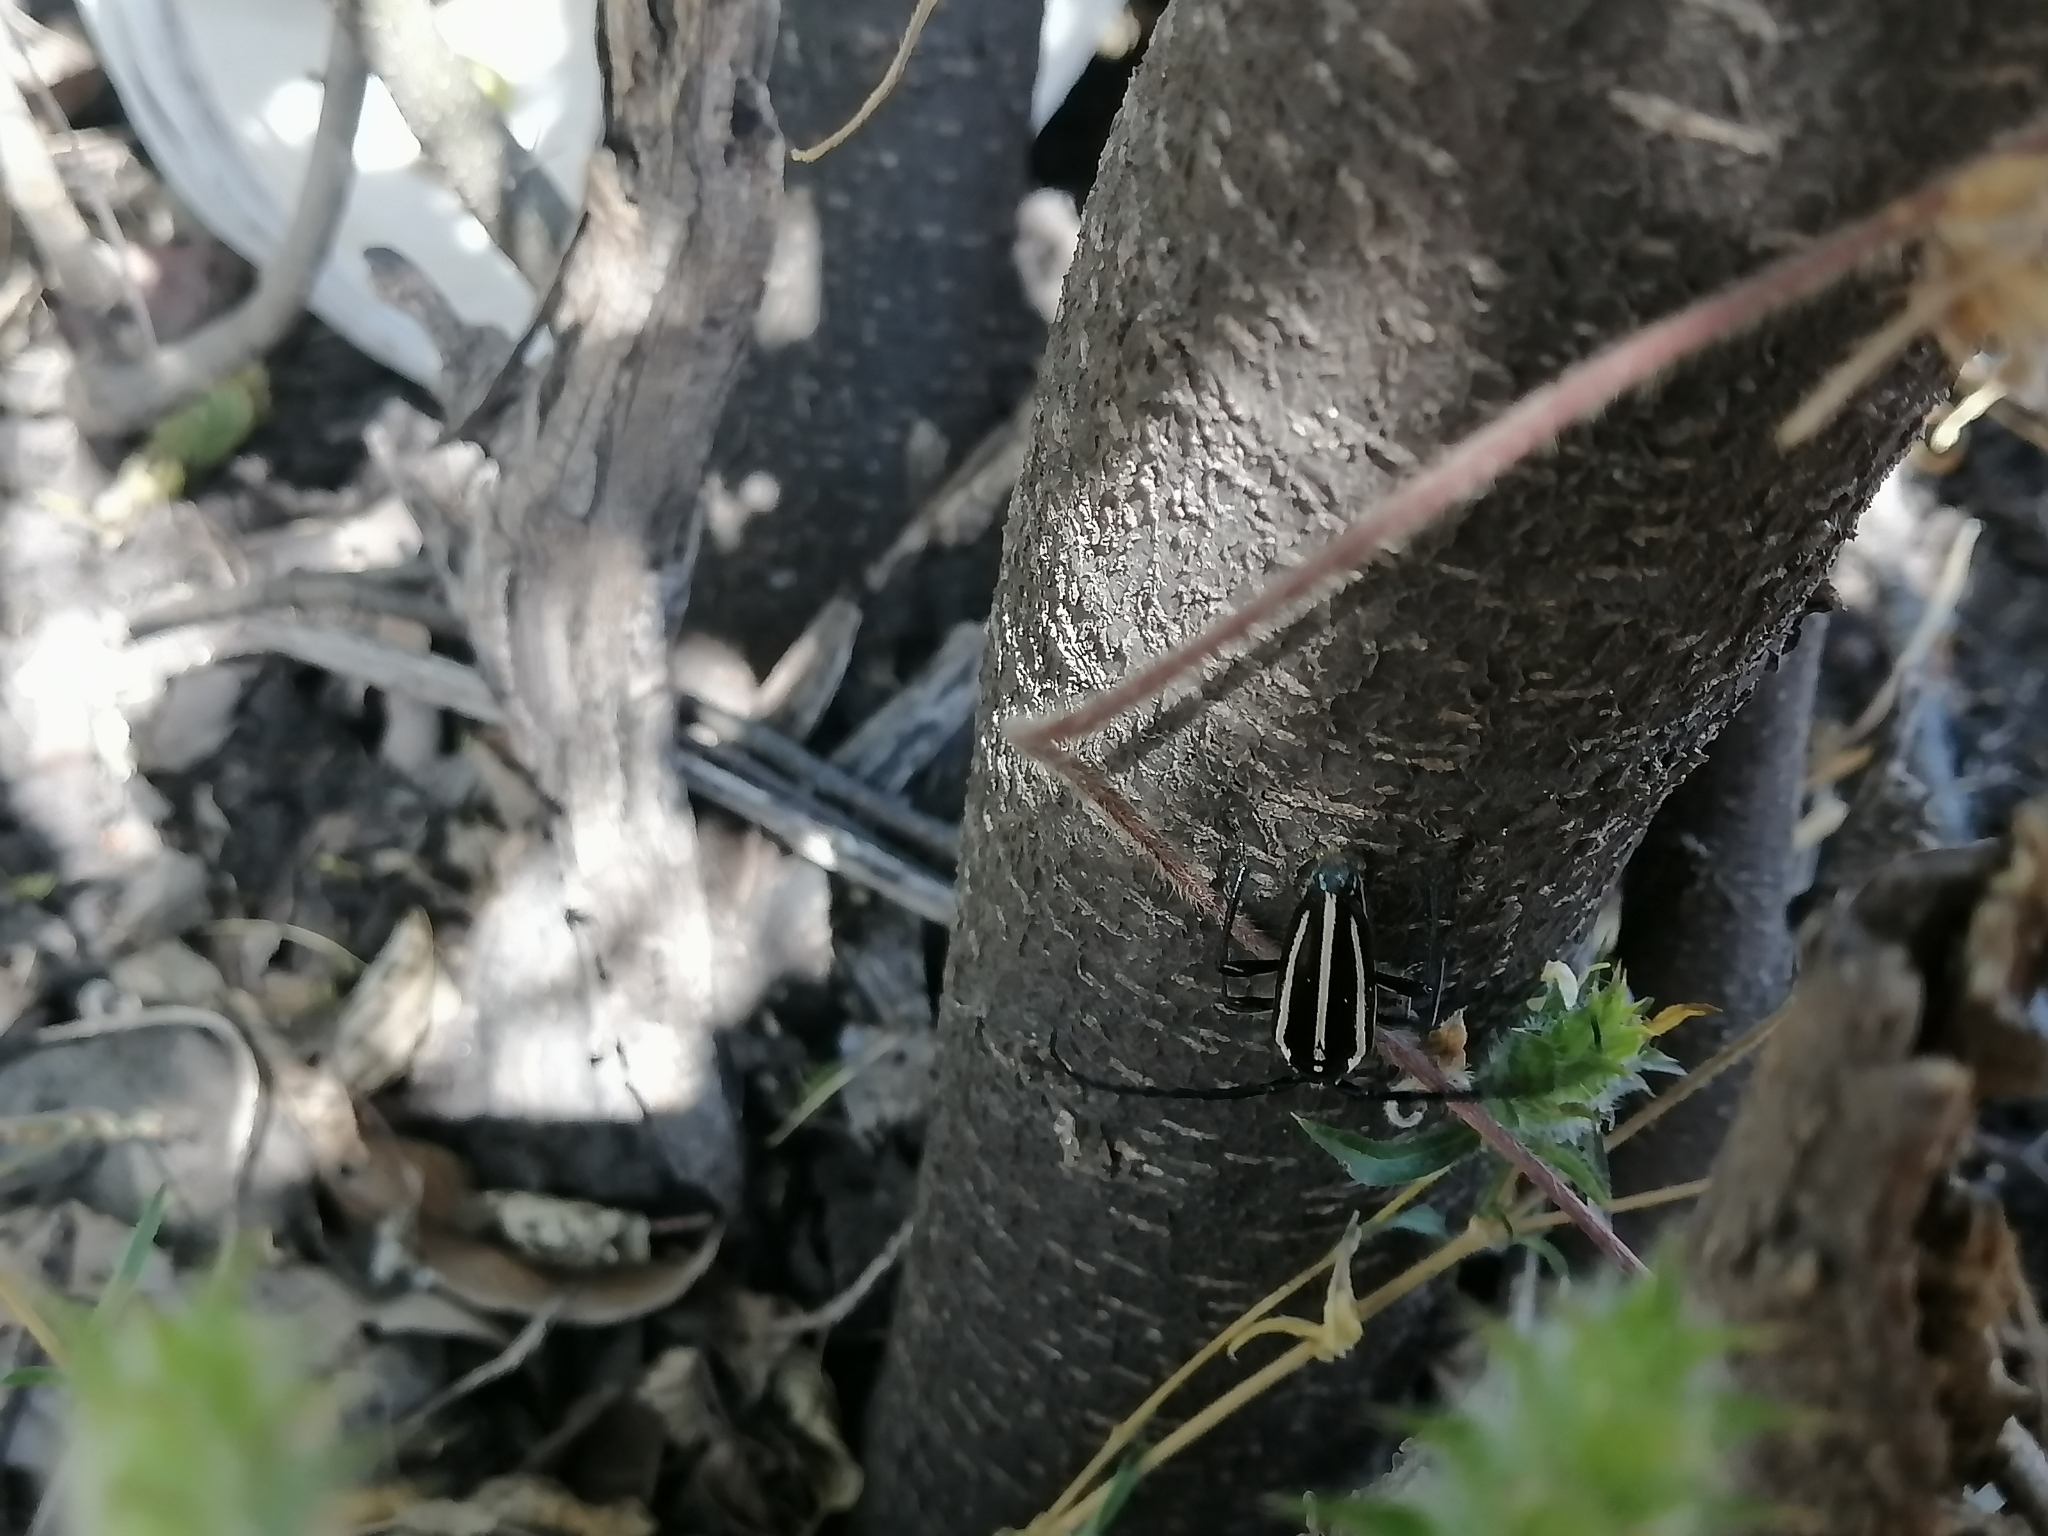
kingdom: Animalia
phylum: Arthropoda
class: Insecta
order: Coleoptera
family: Cerambycidae
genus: Sphaenothecus
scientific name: Sphaenothecus trilineatus
